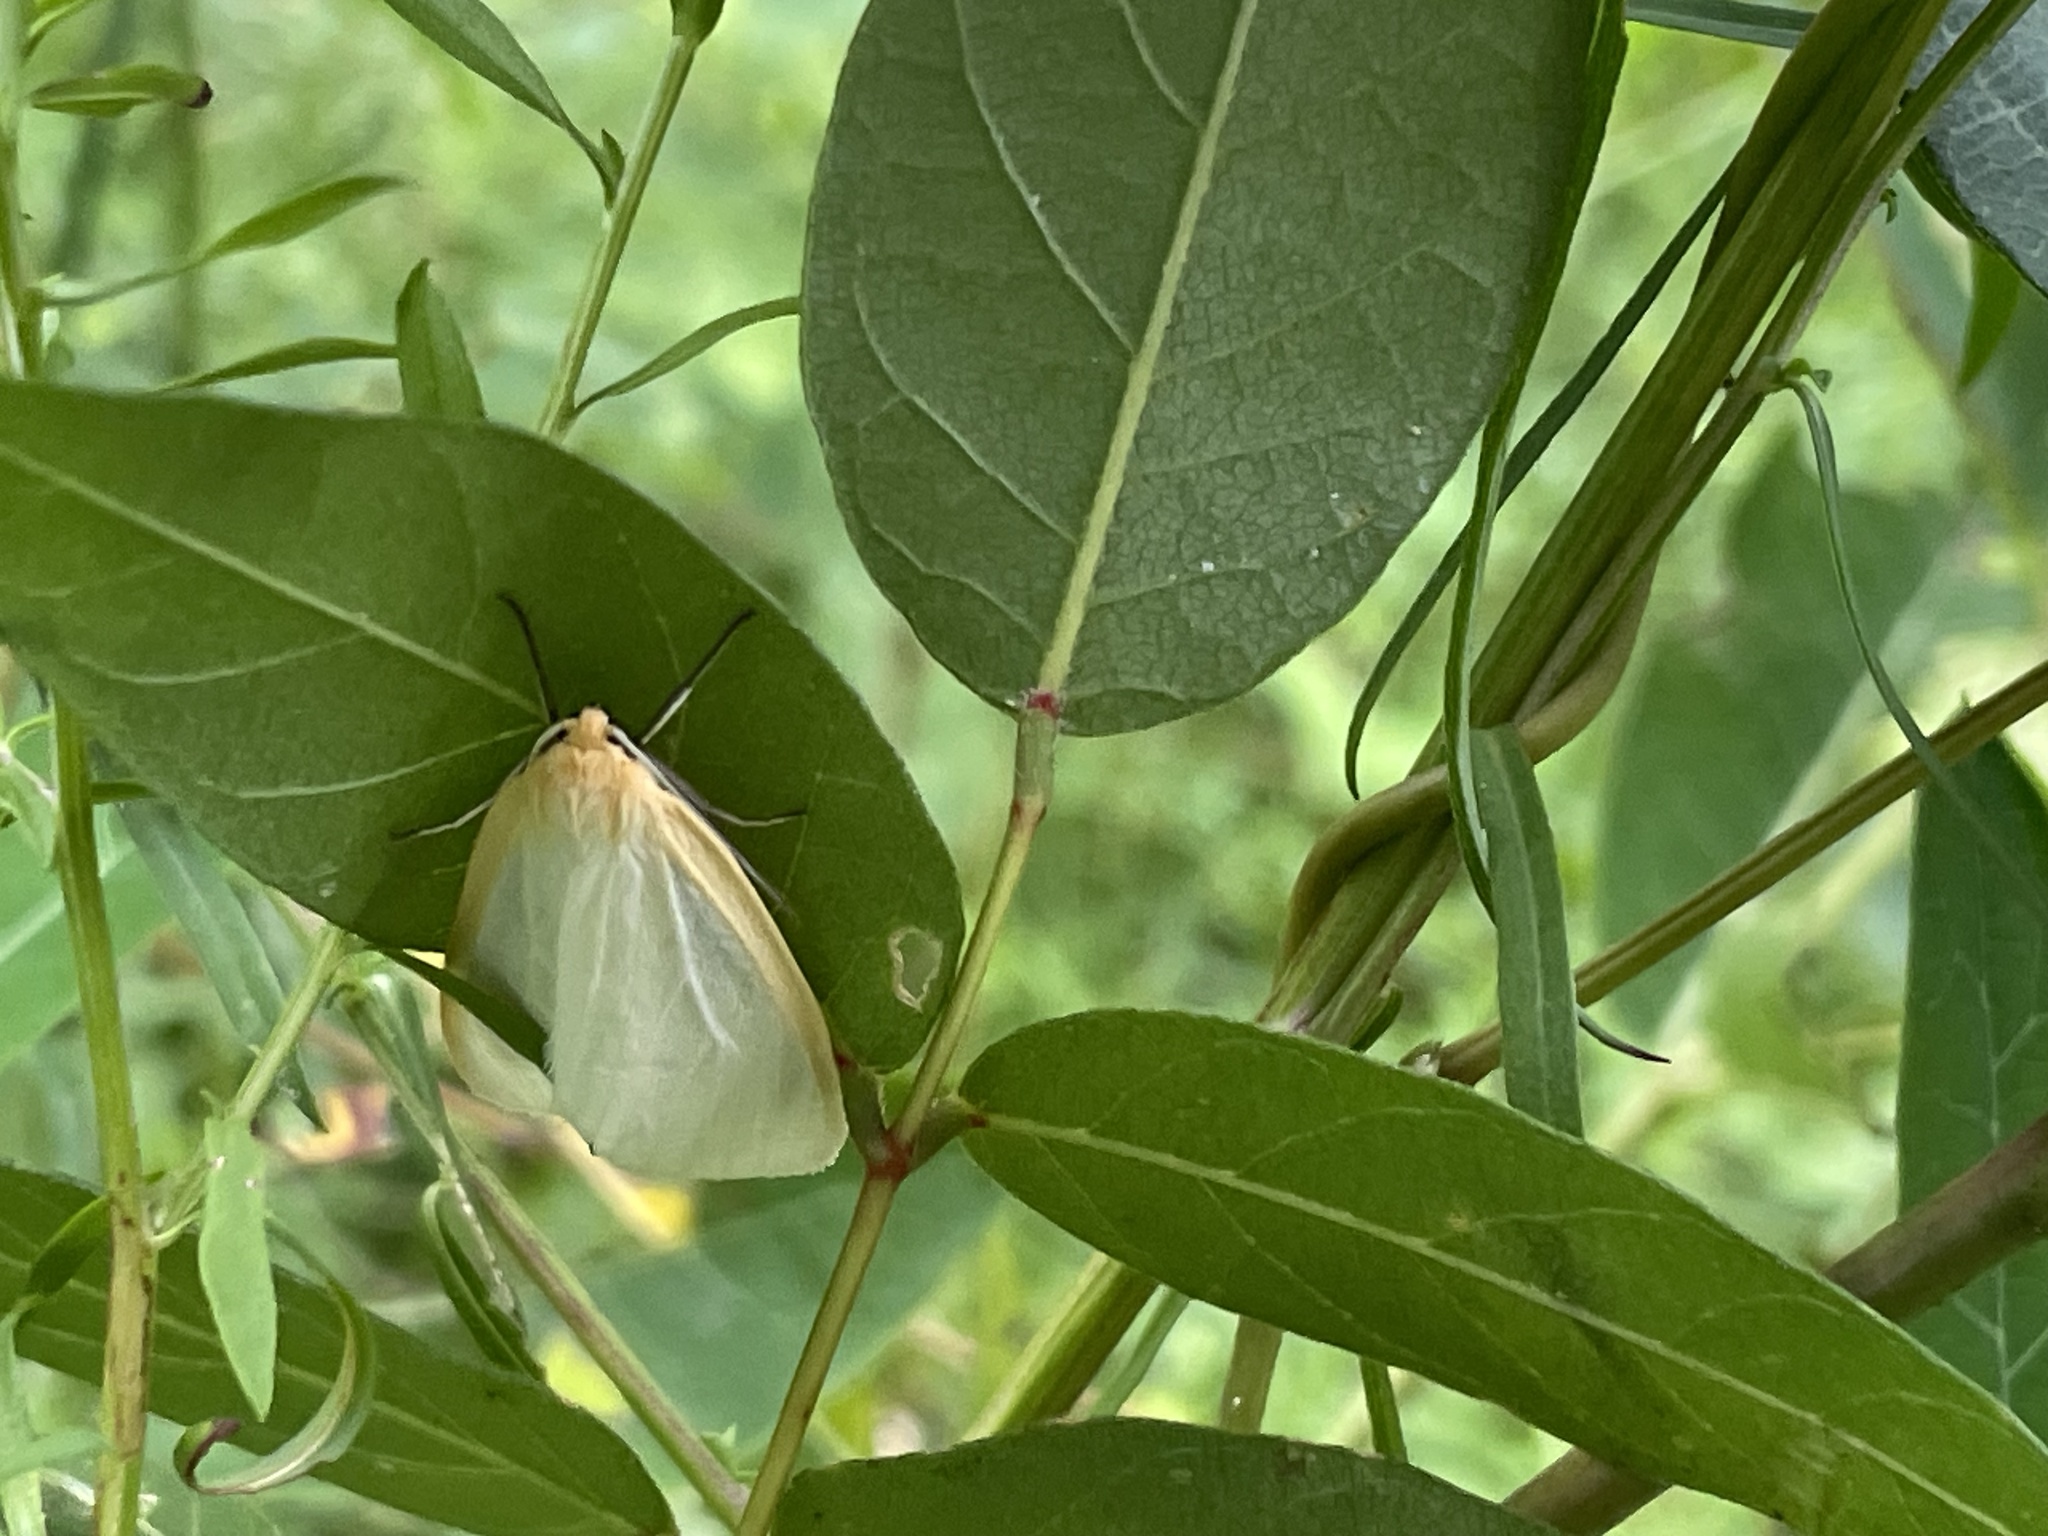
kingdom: Animalia
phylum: Arthropoda
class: Insecta
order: Lepidoptera
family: Erebidae
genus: Cycnia
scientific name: Cycnia tenera
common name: Delicate cycnia moth
